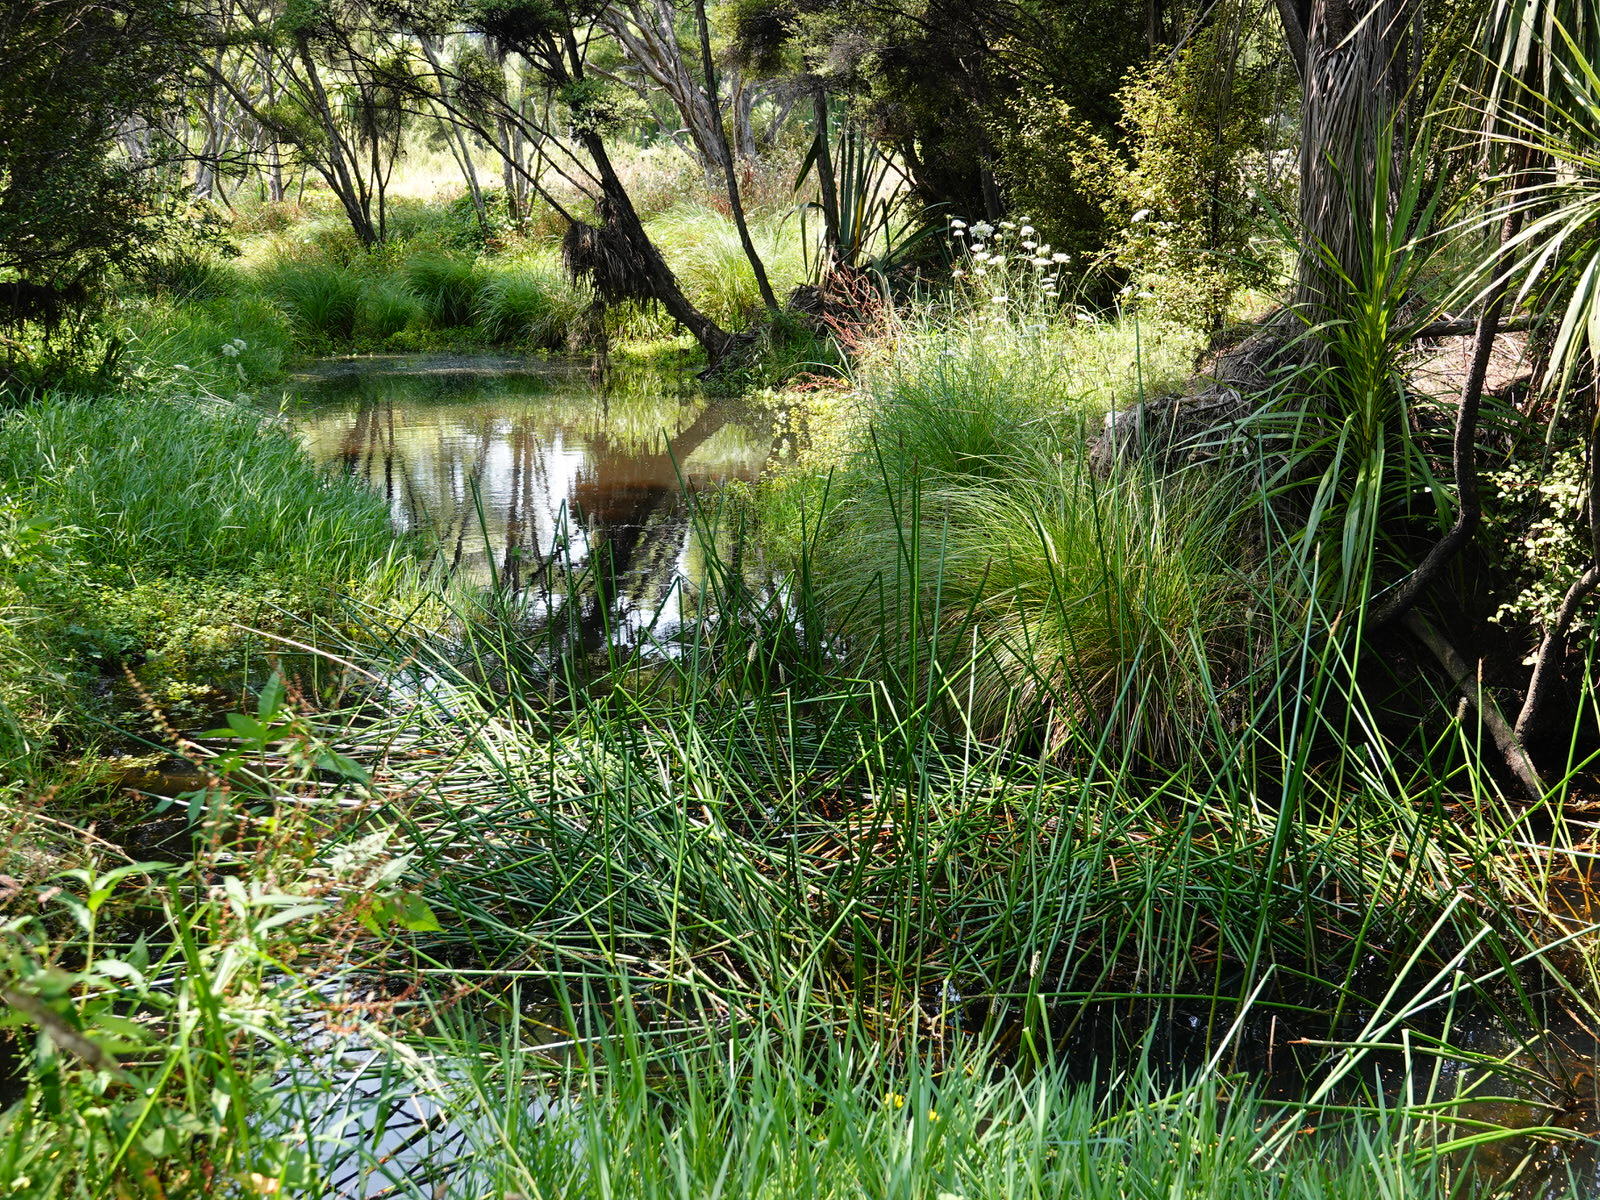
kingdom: Plantae
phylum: Tracheophyta
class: Liliopsida
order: Poales
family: Cyperaceae
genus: Eleocharis
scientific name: Eleocharis sphacelata
